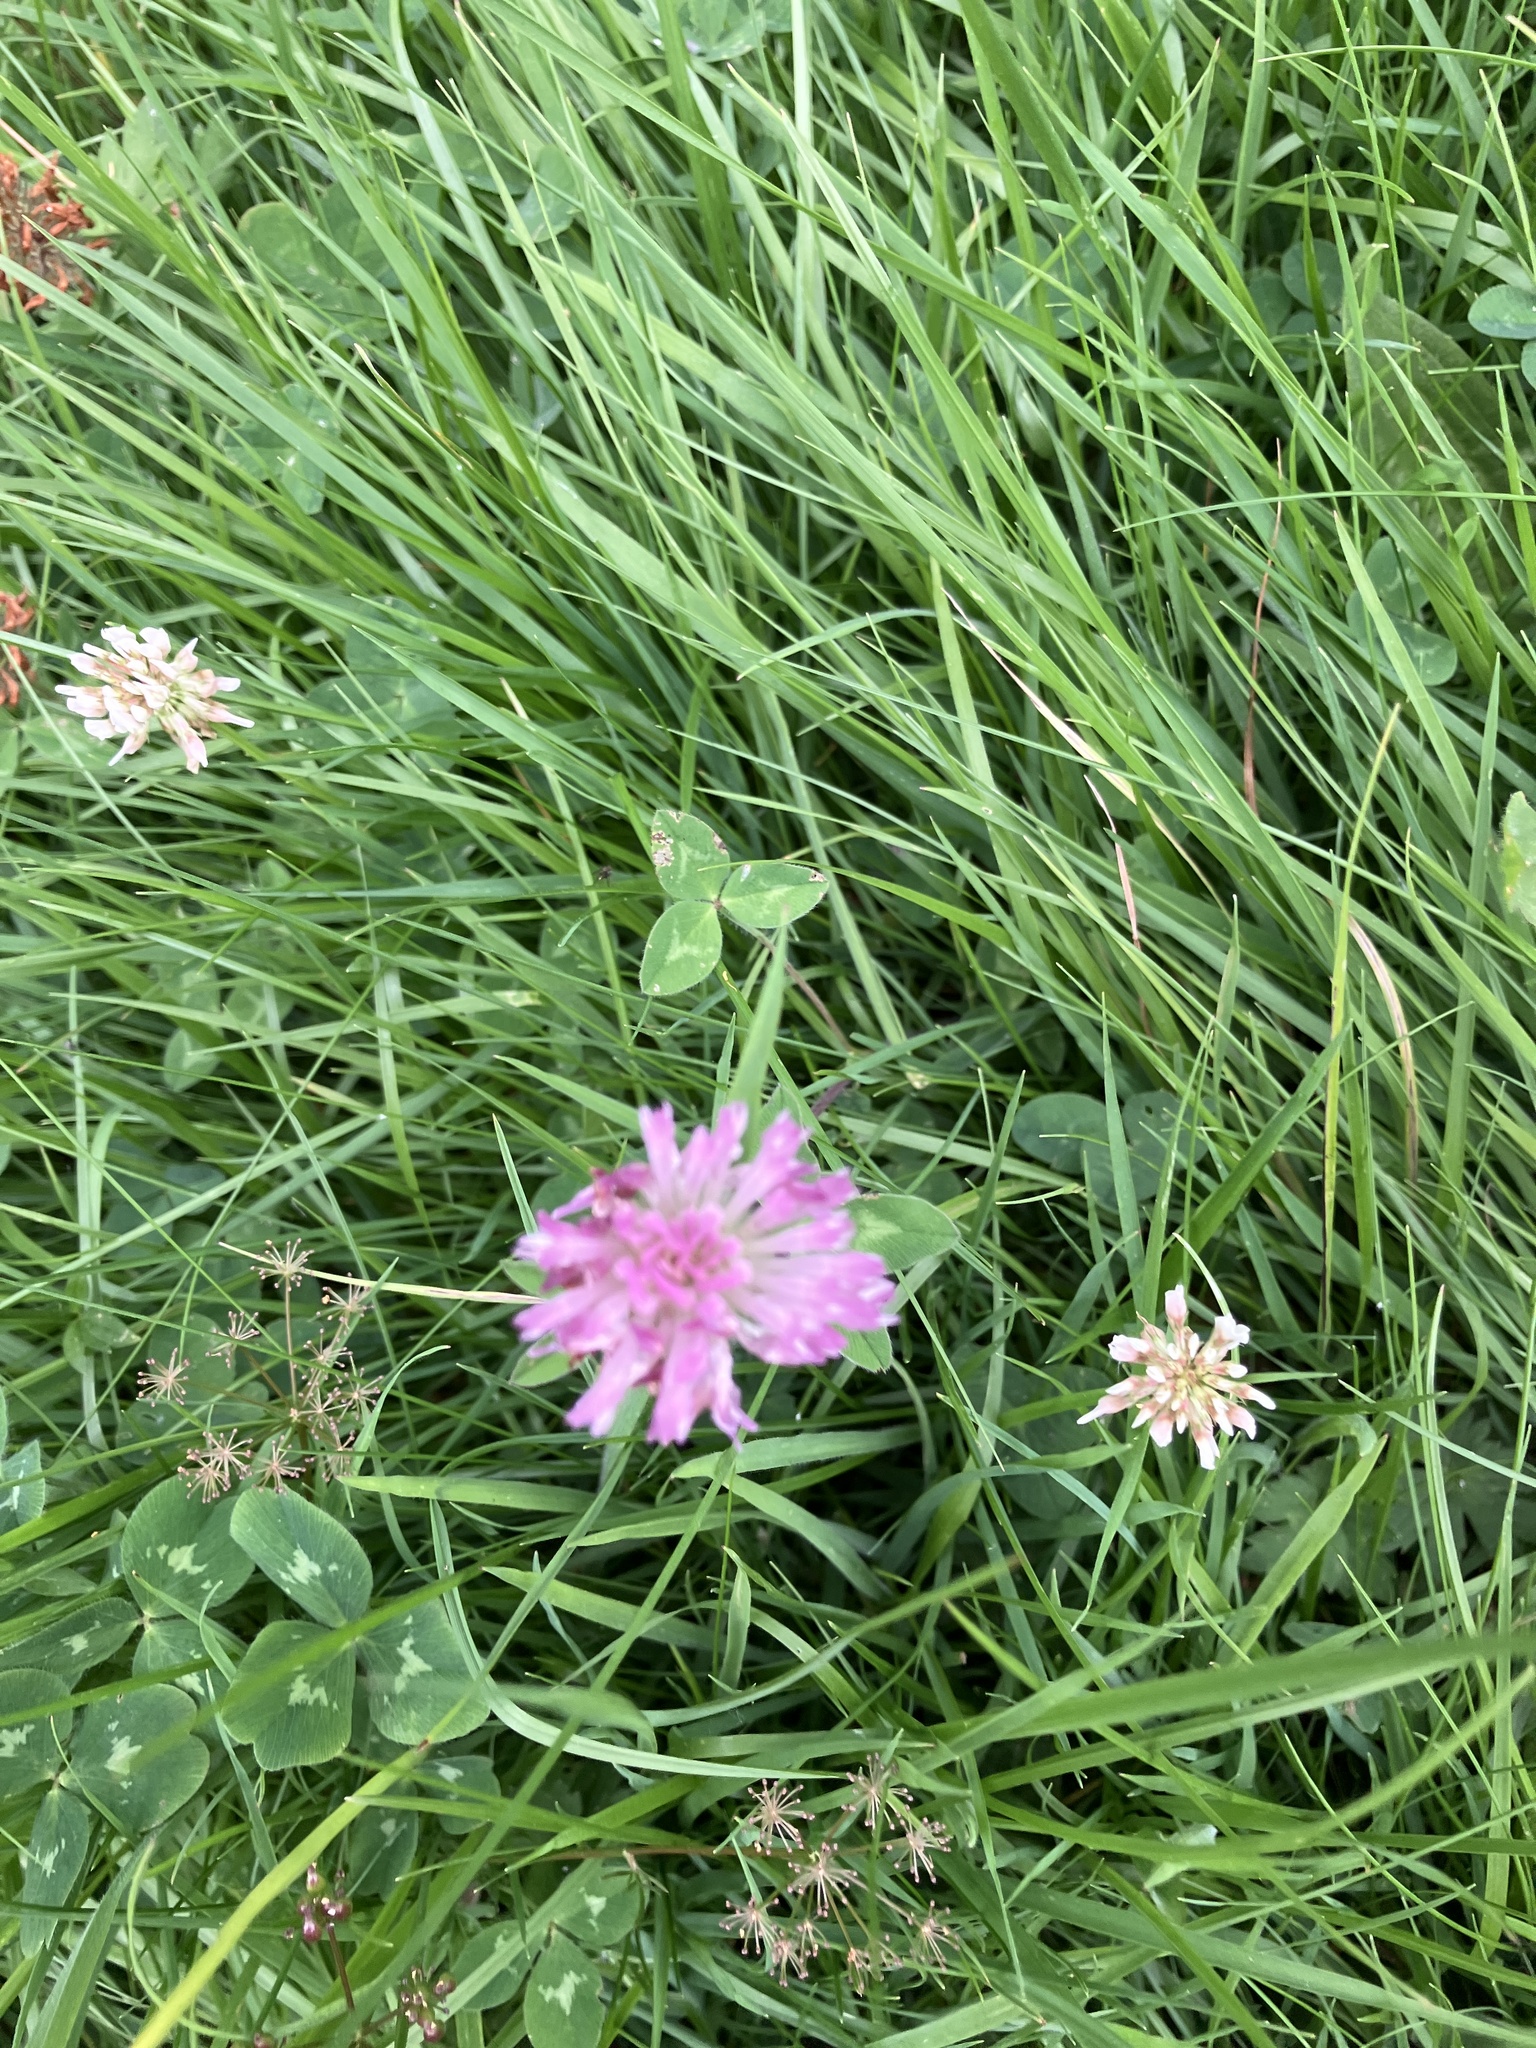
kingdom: Plantae
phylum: Tracheophyta
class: Magnoliopsida
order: Fabales
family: Fabaceae
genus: Trifolium
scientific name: Trifolium pratense
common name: Red clover
